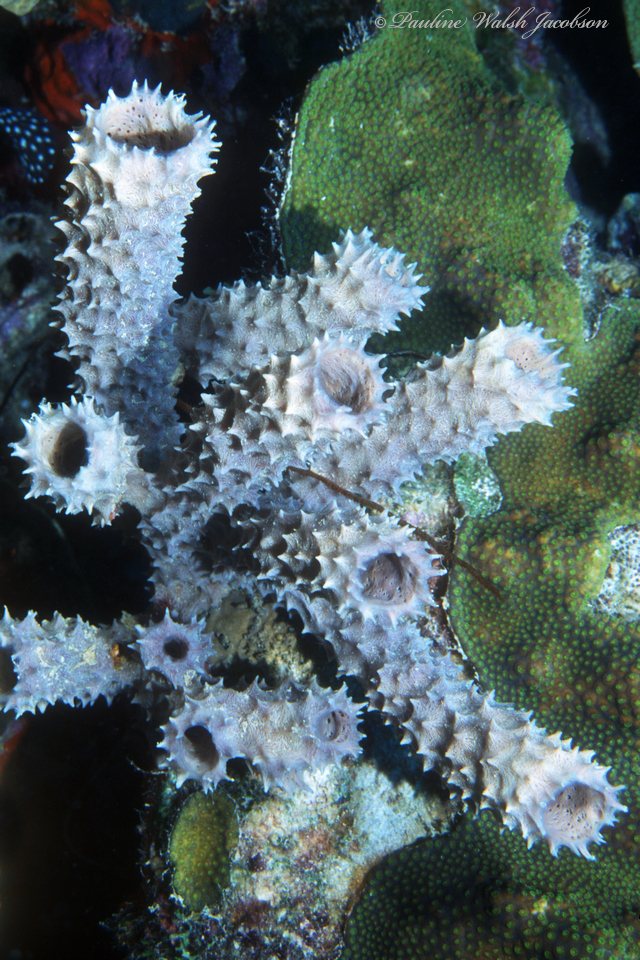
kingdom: Animalia
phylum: Porifera
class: Demospongiae
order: Haplosclerida
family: Callyspongiidae
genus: Callyspongia
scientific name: Callyspongia aculeata
